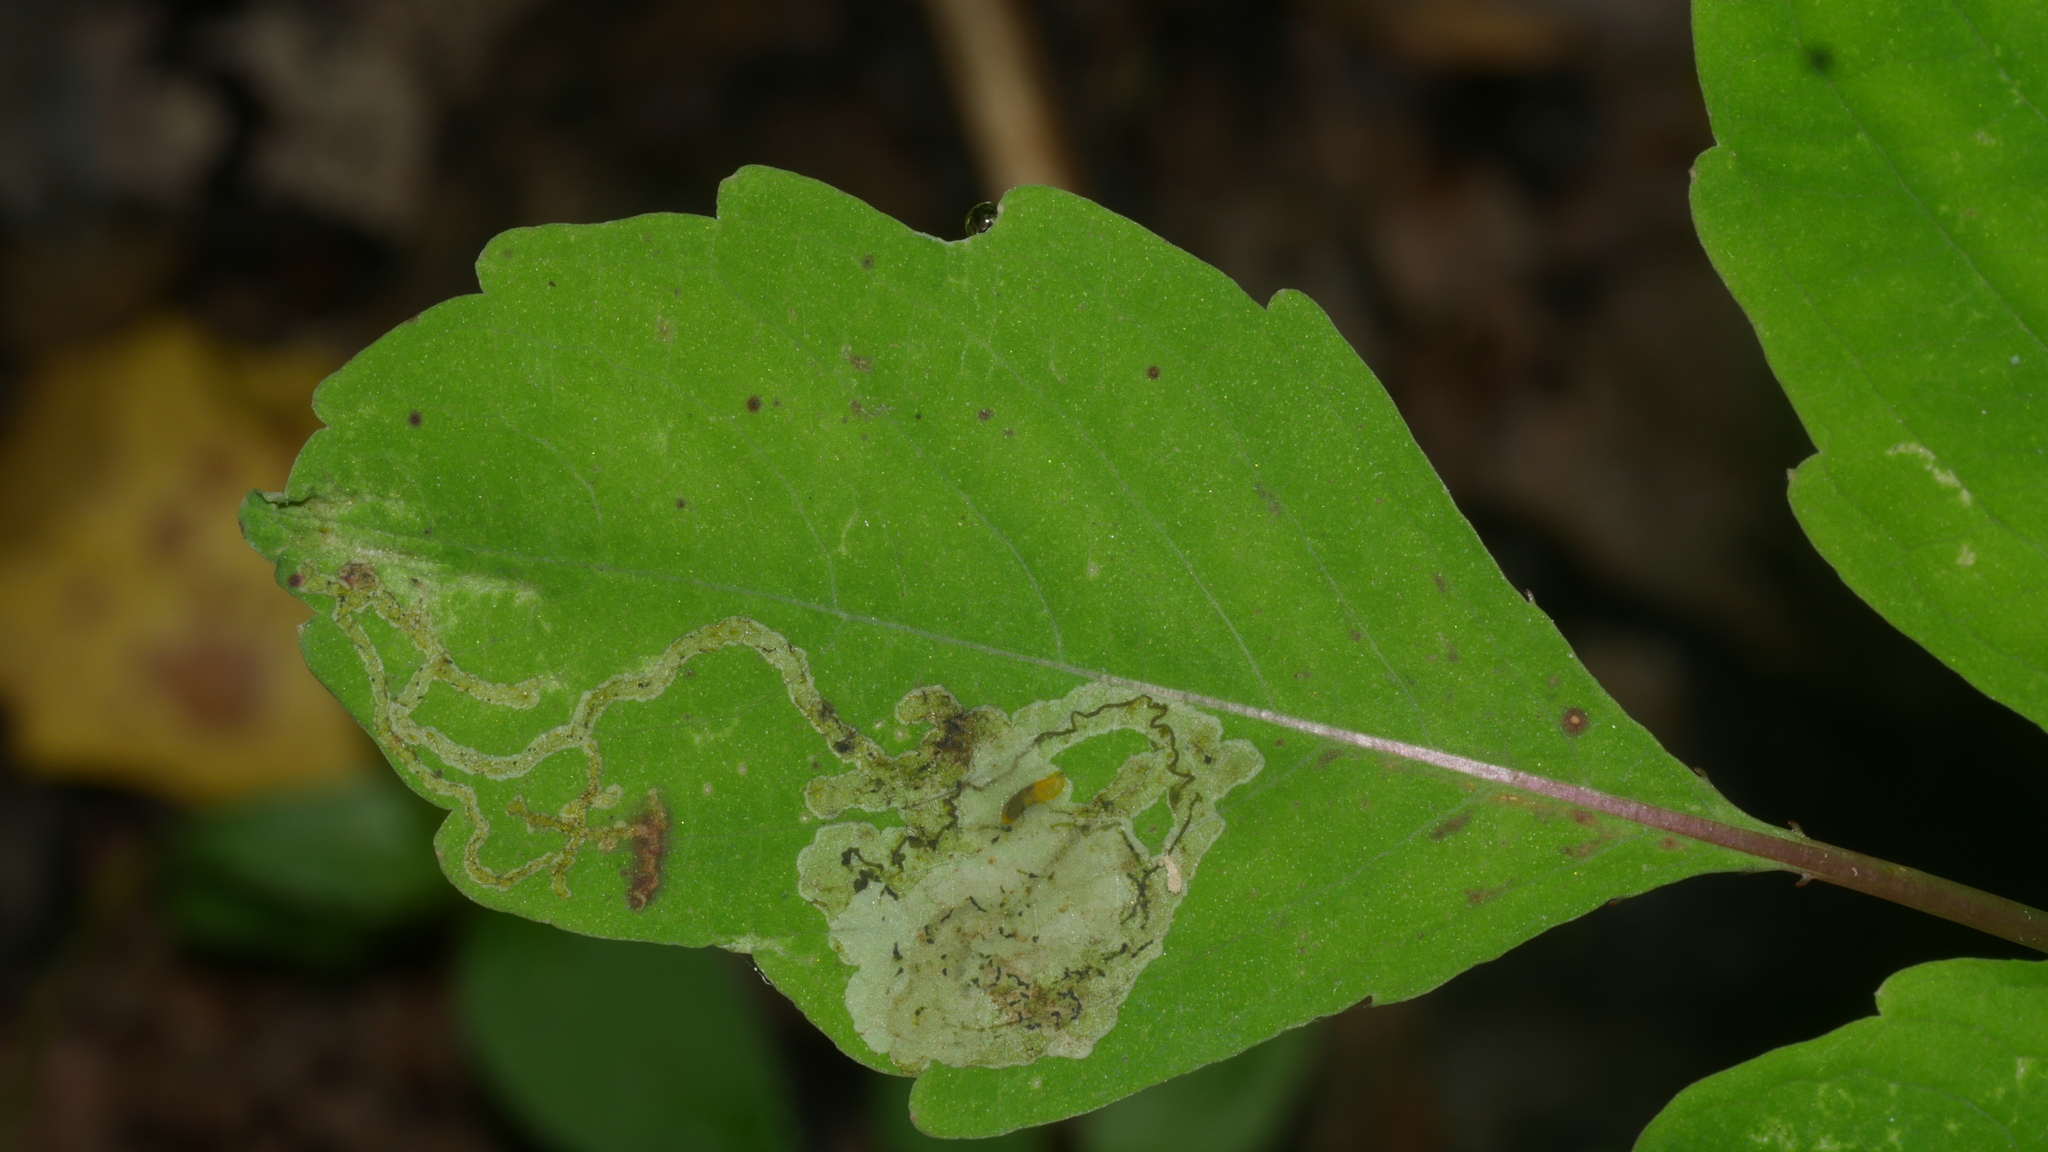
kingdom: Animalia
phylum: Arthropoda
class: Insecta
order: Diptera
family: Agromyzidae
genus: Phytoliriomyza
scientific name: Phytoliriomyza melampyga
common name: Jewelweed leaf-miner fly
